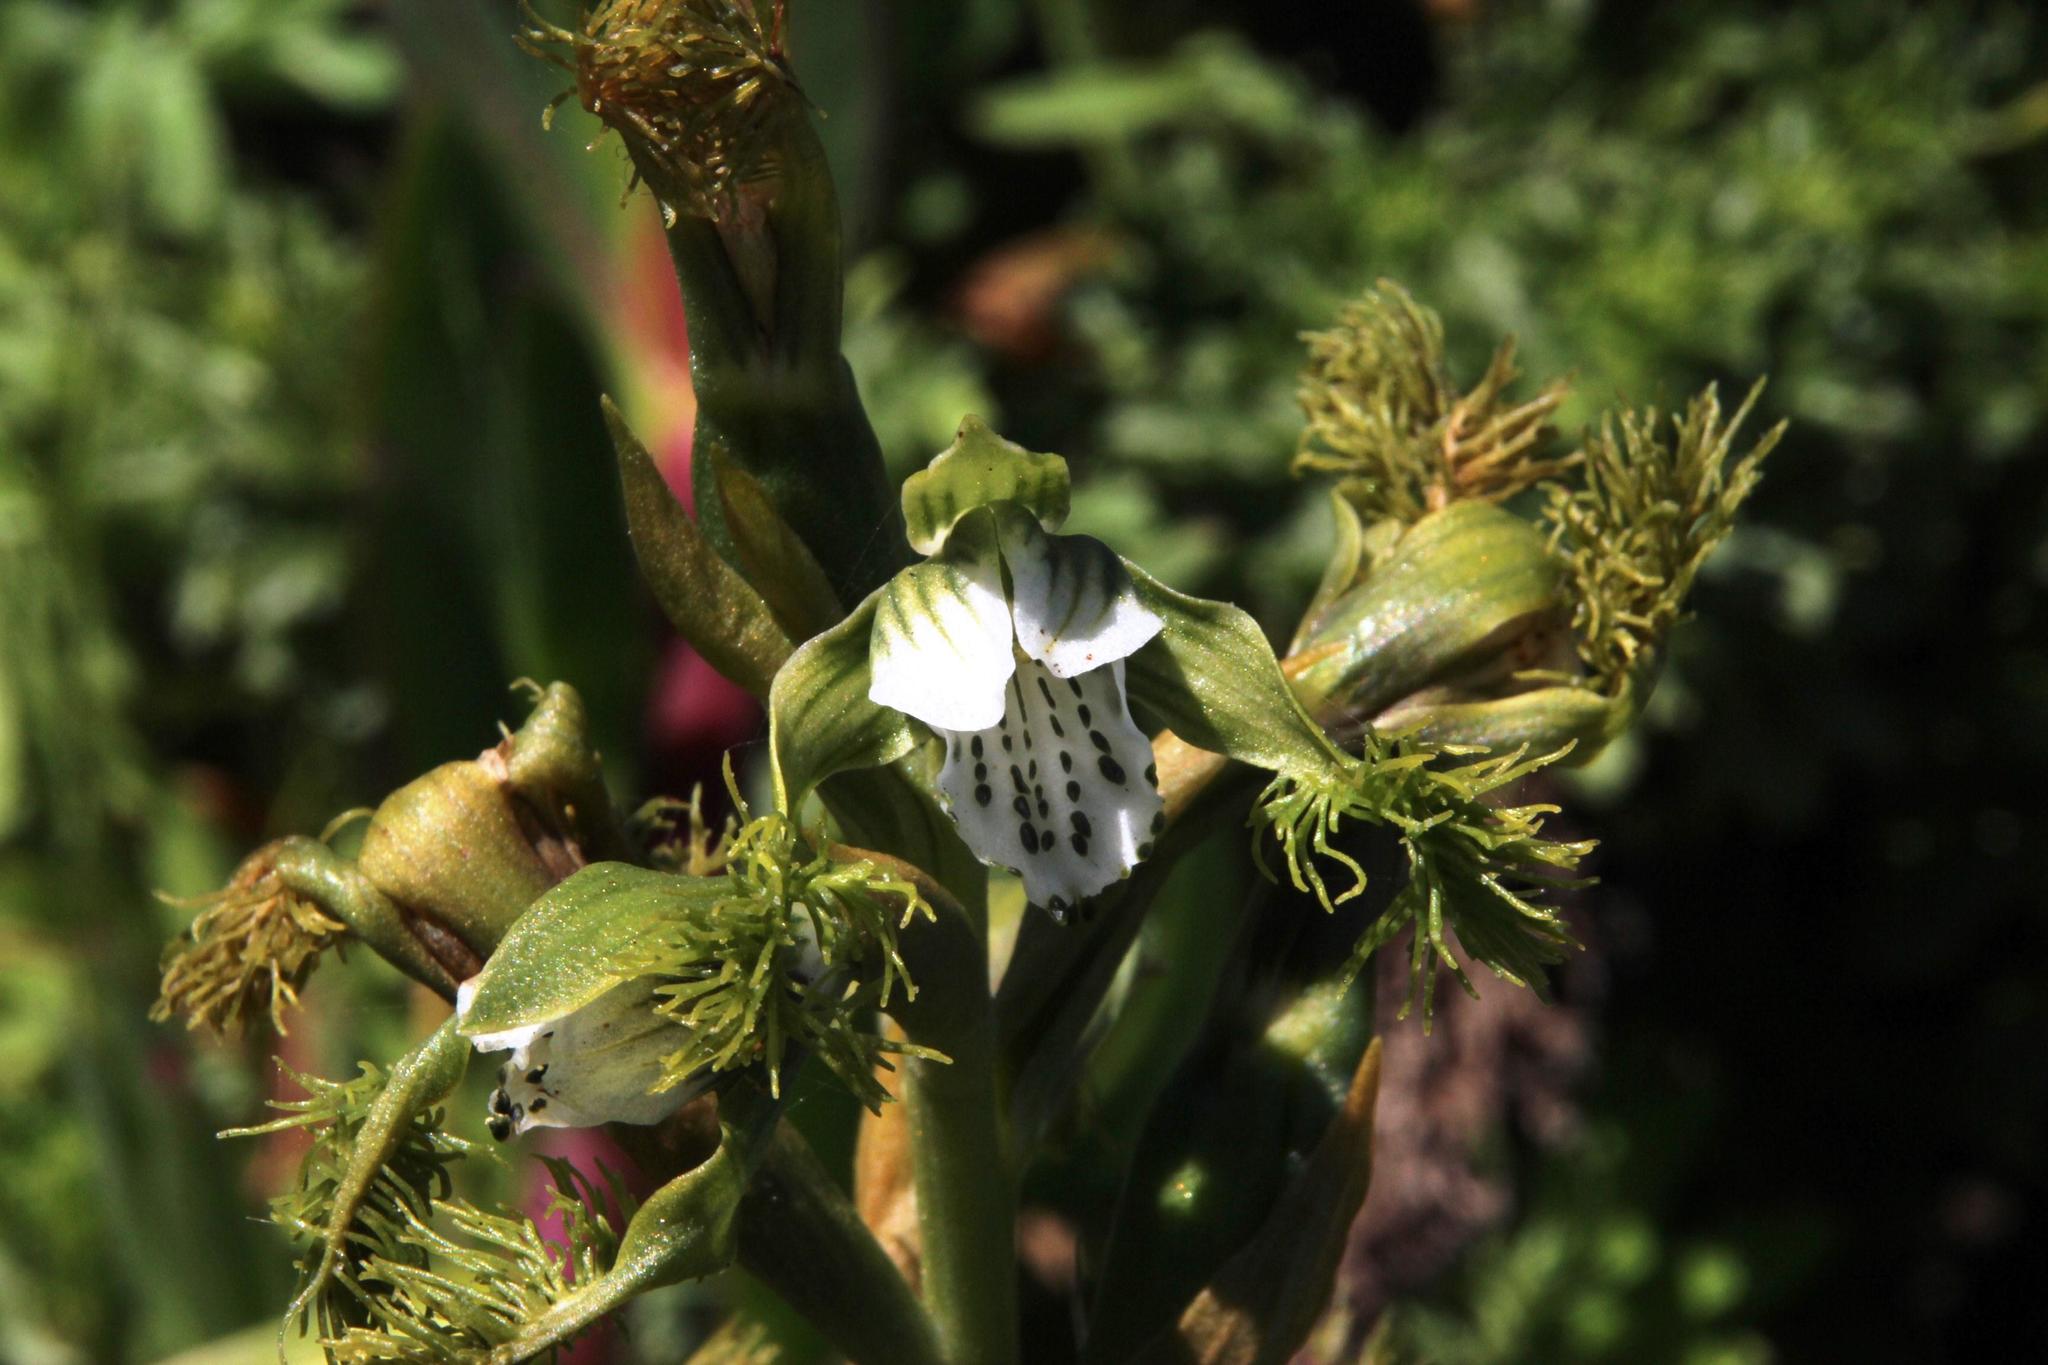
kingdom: Plantae
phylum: Tracheophyta
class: Liliopsida
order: Asparagales
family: Orchidaceae
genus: Bipinnula
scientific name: Bipinnula fimbriata
